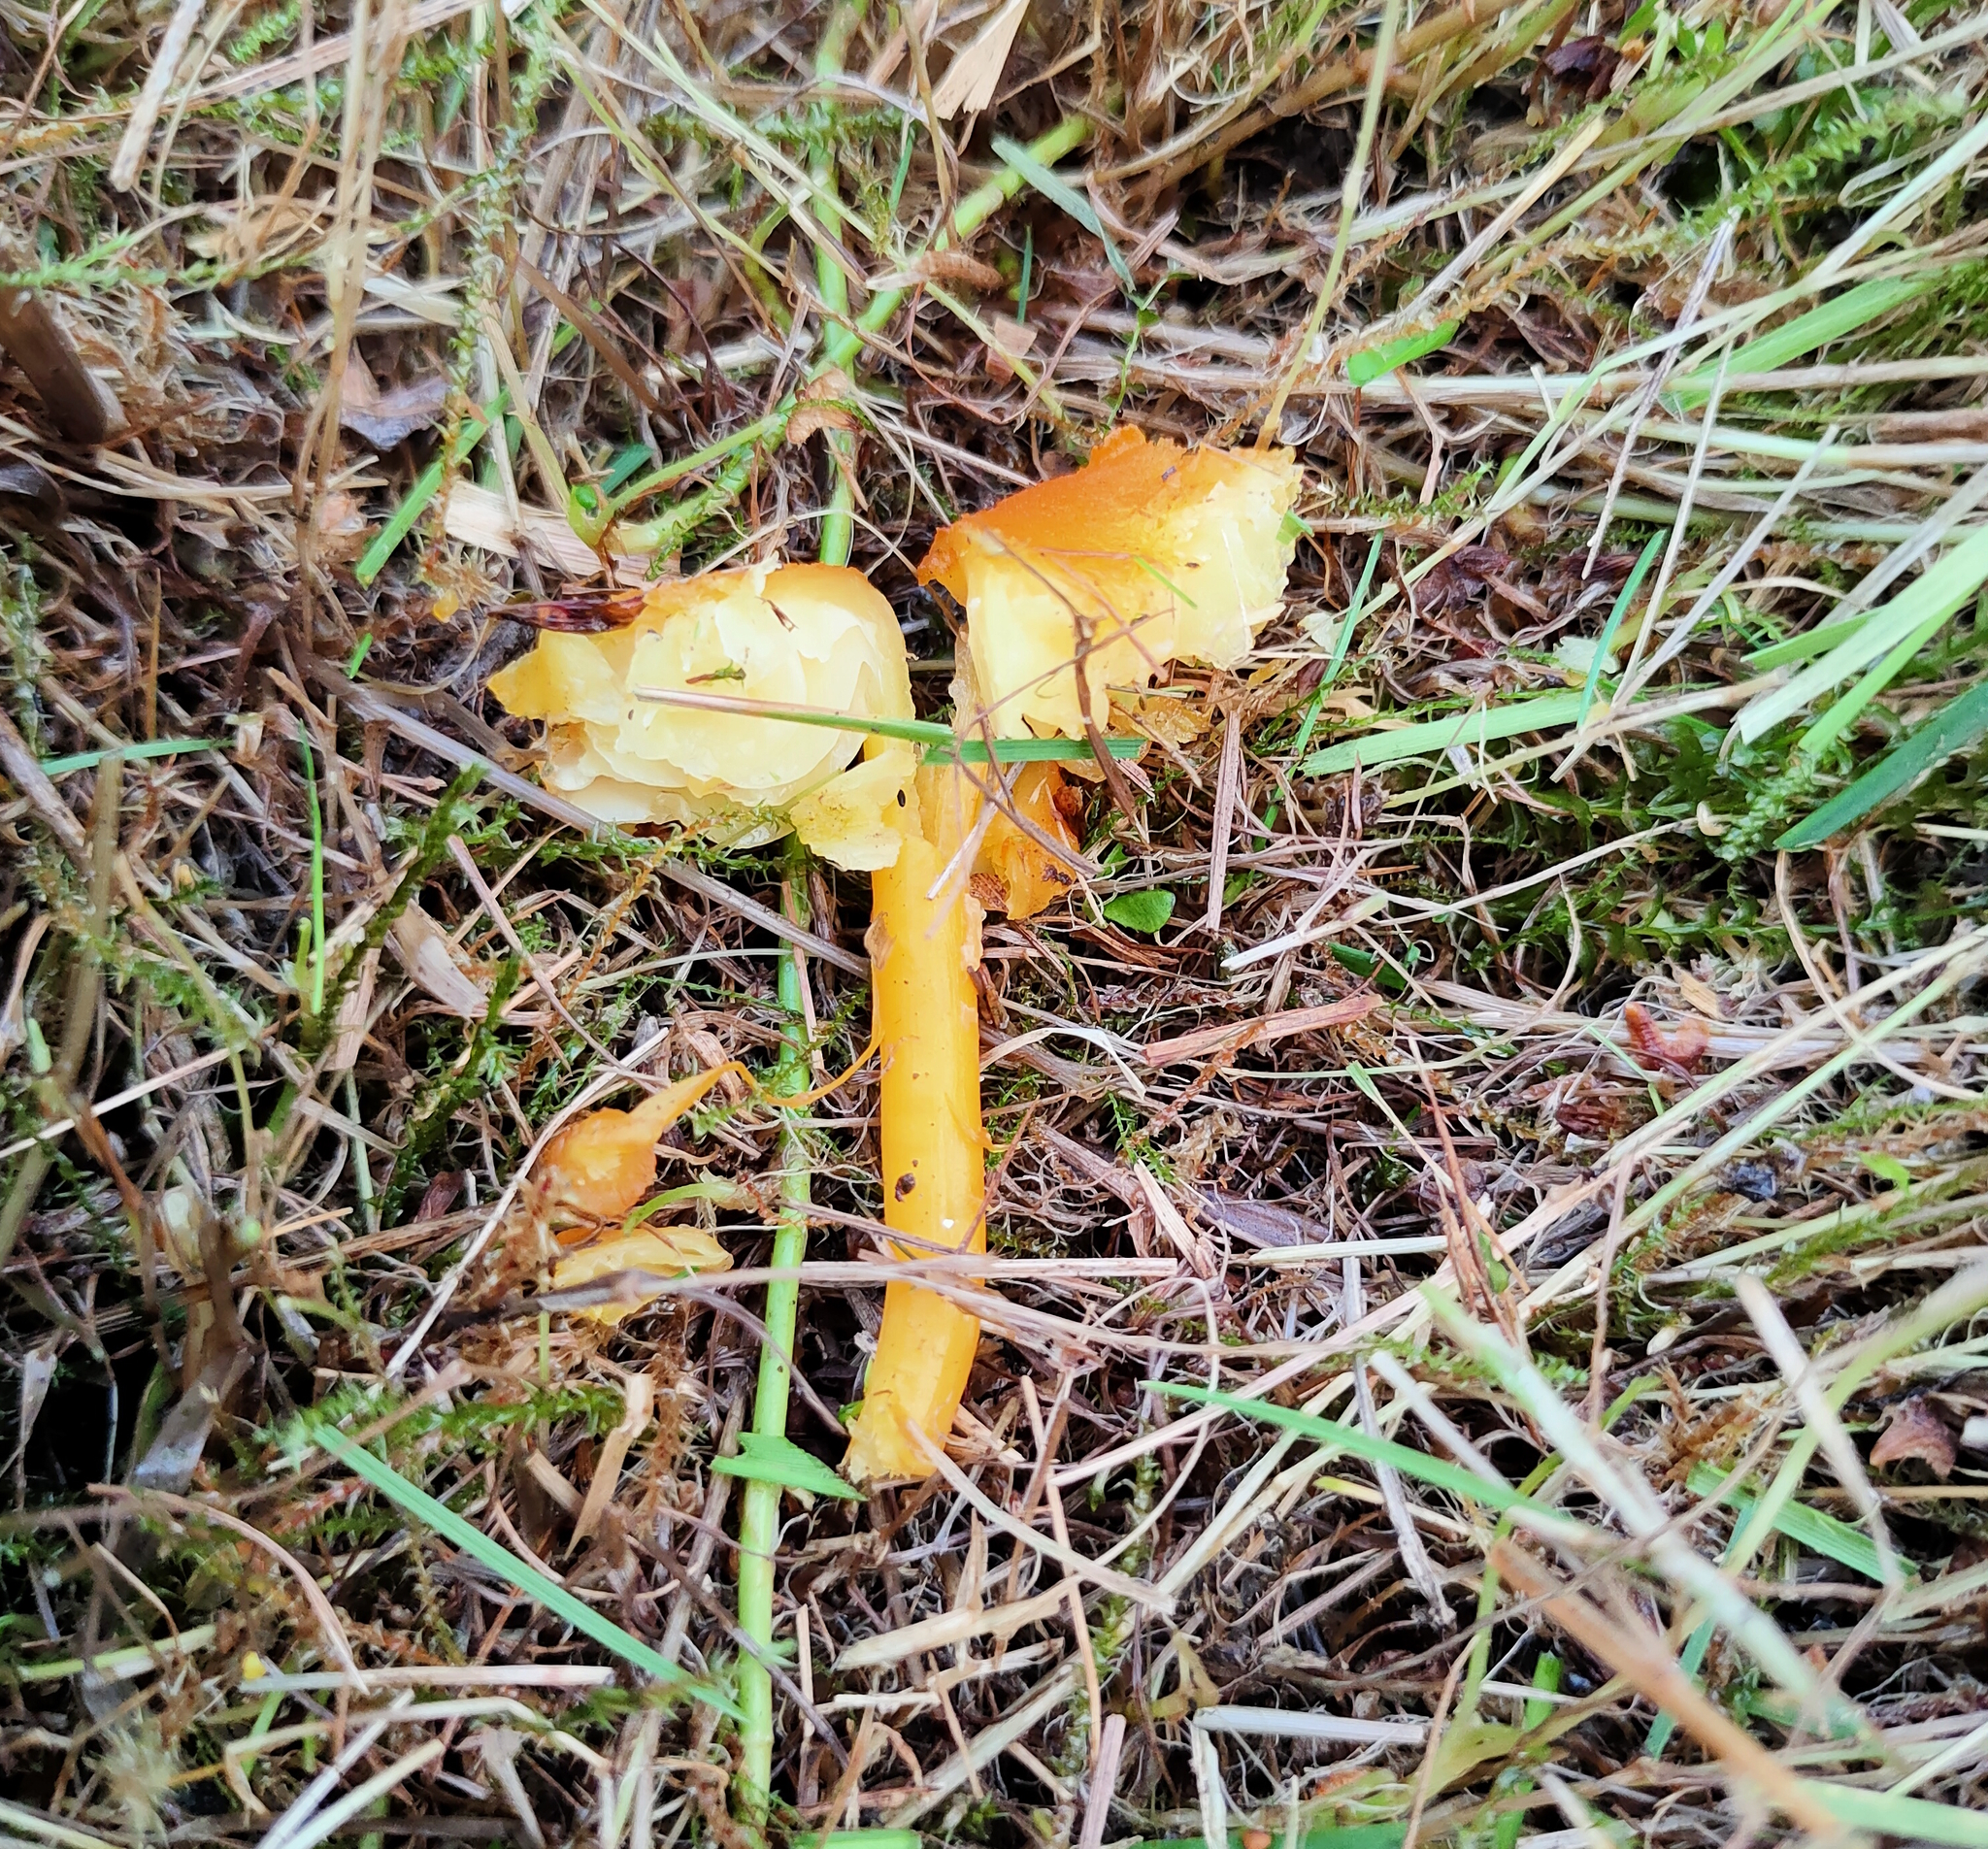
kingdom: Fungi
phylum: Basidiomycota
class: Agaricomycetes
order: Agaricales
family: Hygrophoraceae
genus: Hygrocybe
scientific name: Hygrocybe chlorophana
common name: Golden waxcap
